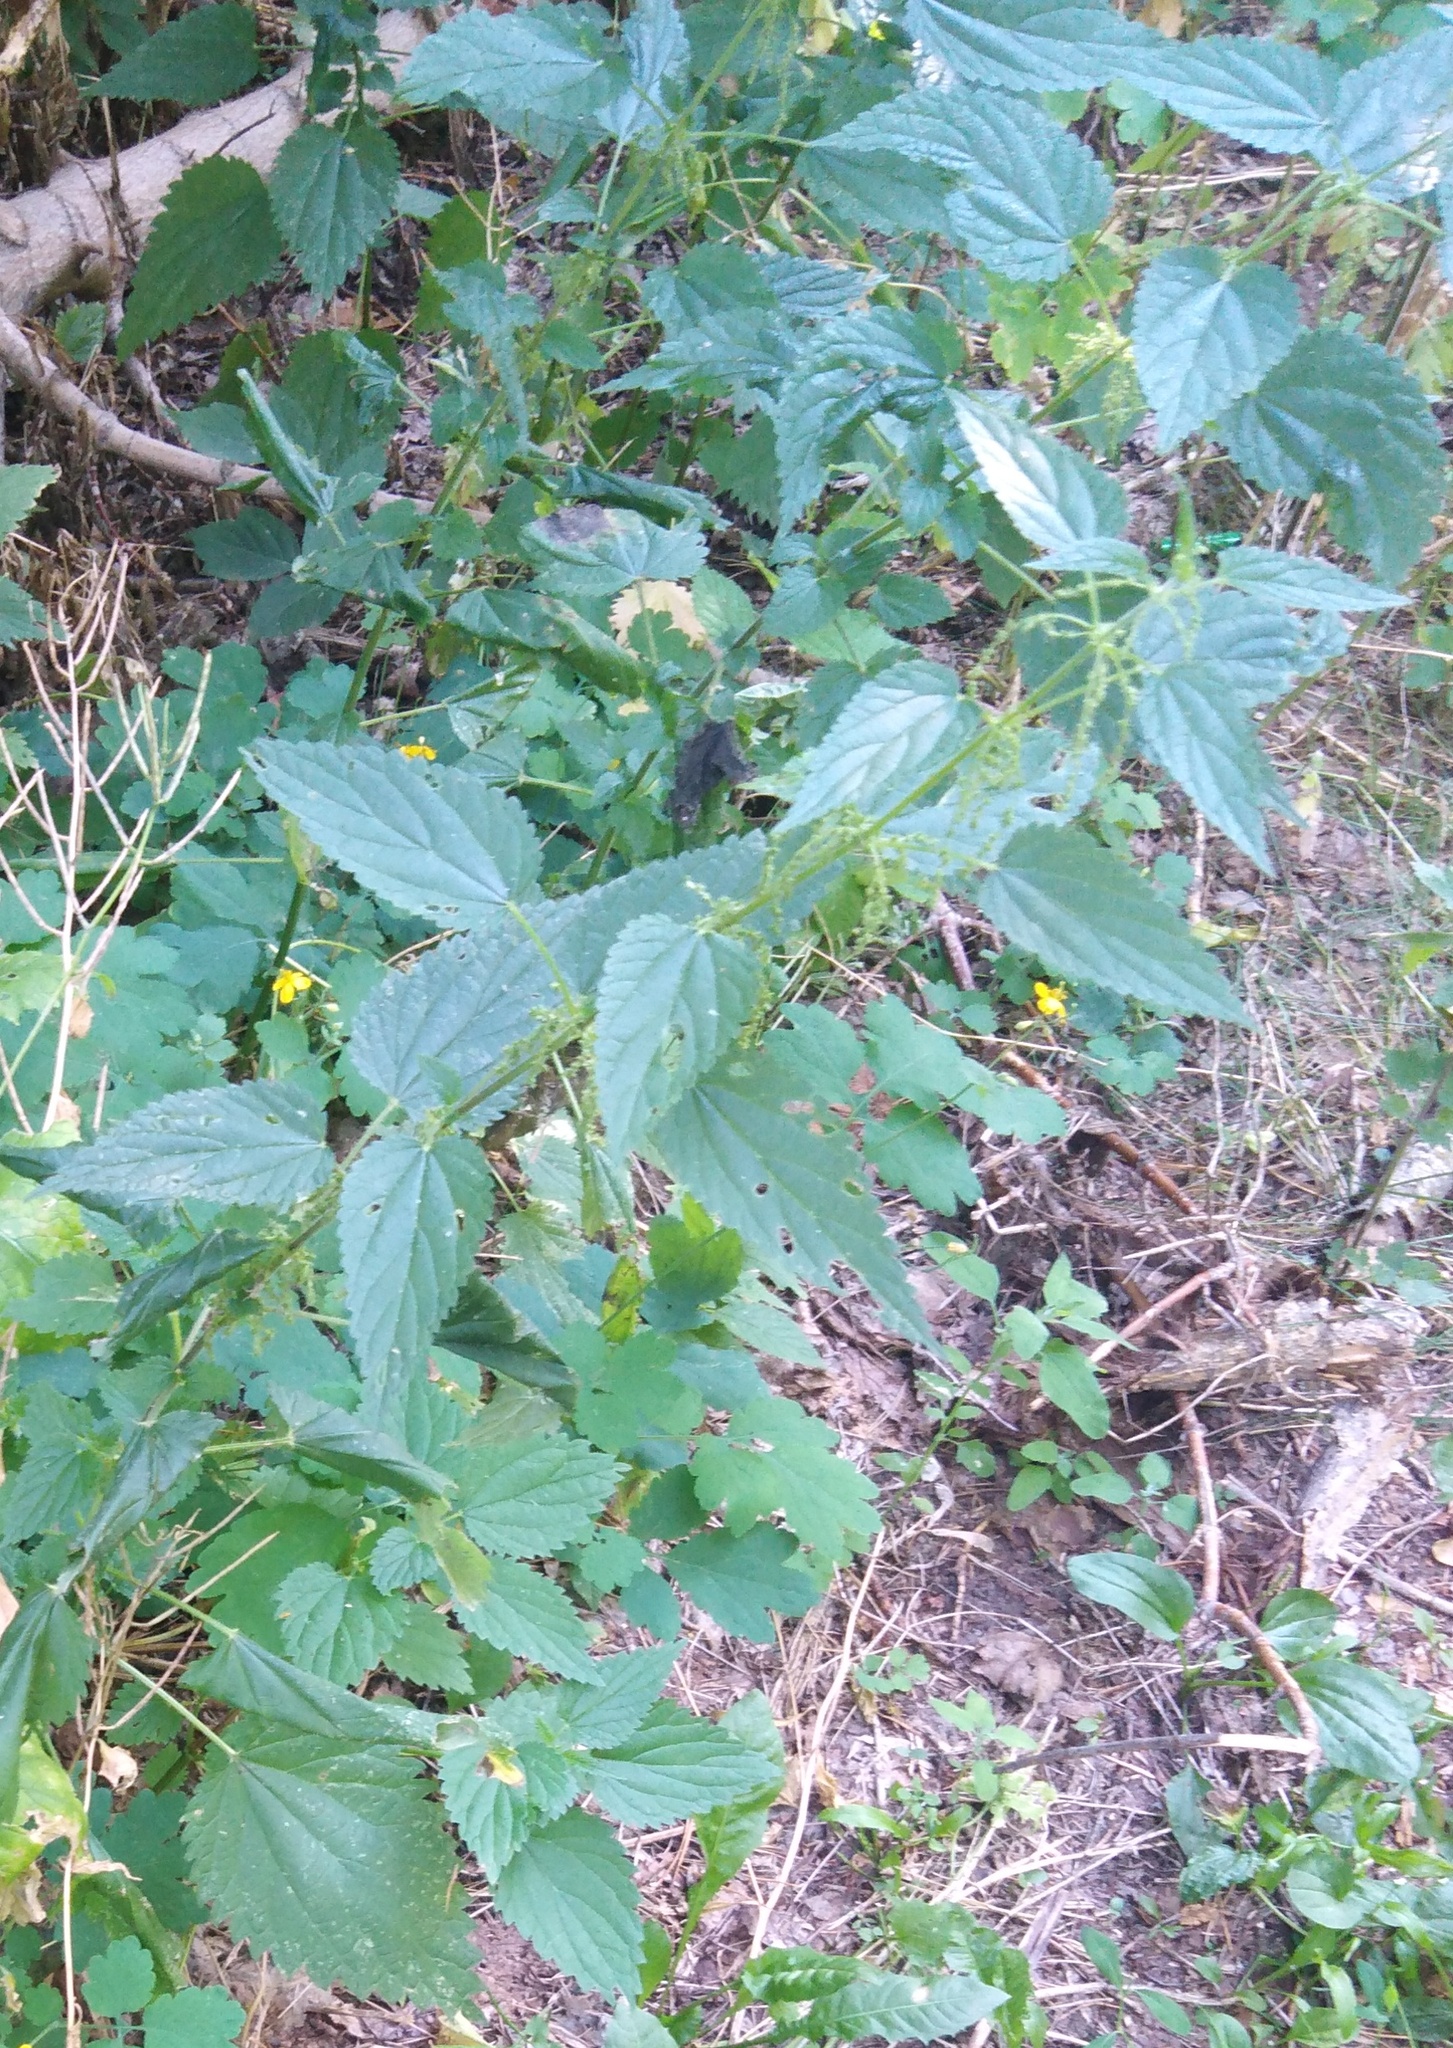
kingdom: Plantae
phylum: Tracheophyta
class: Magnoliopsida
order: Rosales
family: Urticaceae
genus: Urtica
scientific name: Urtica dioica
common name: Common nettle
